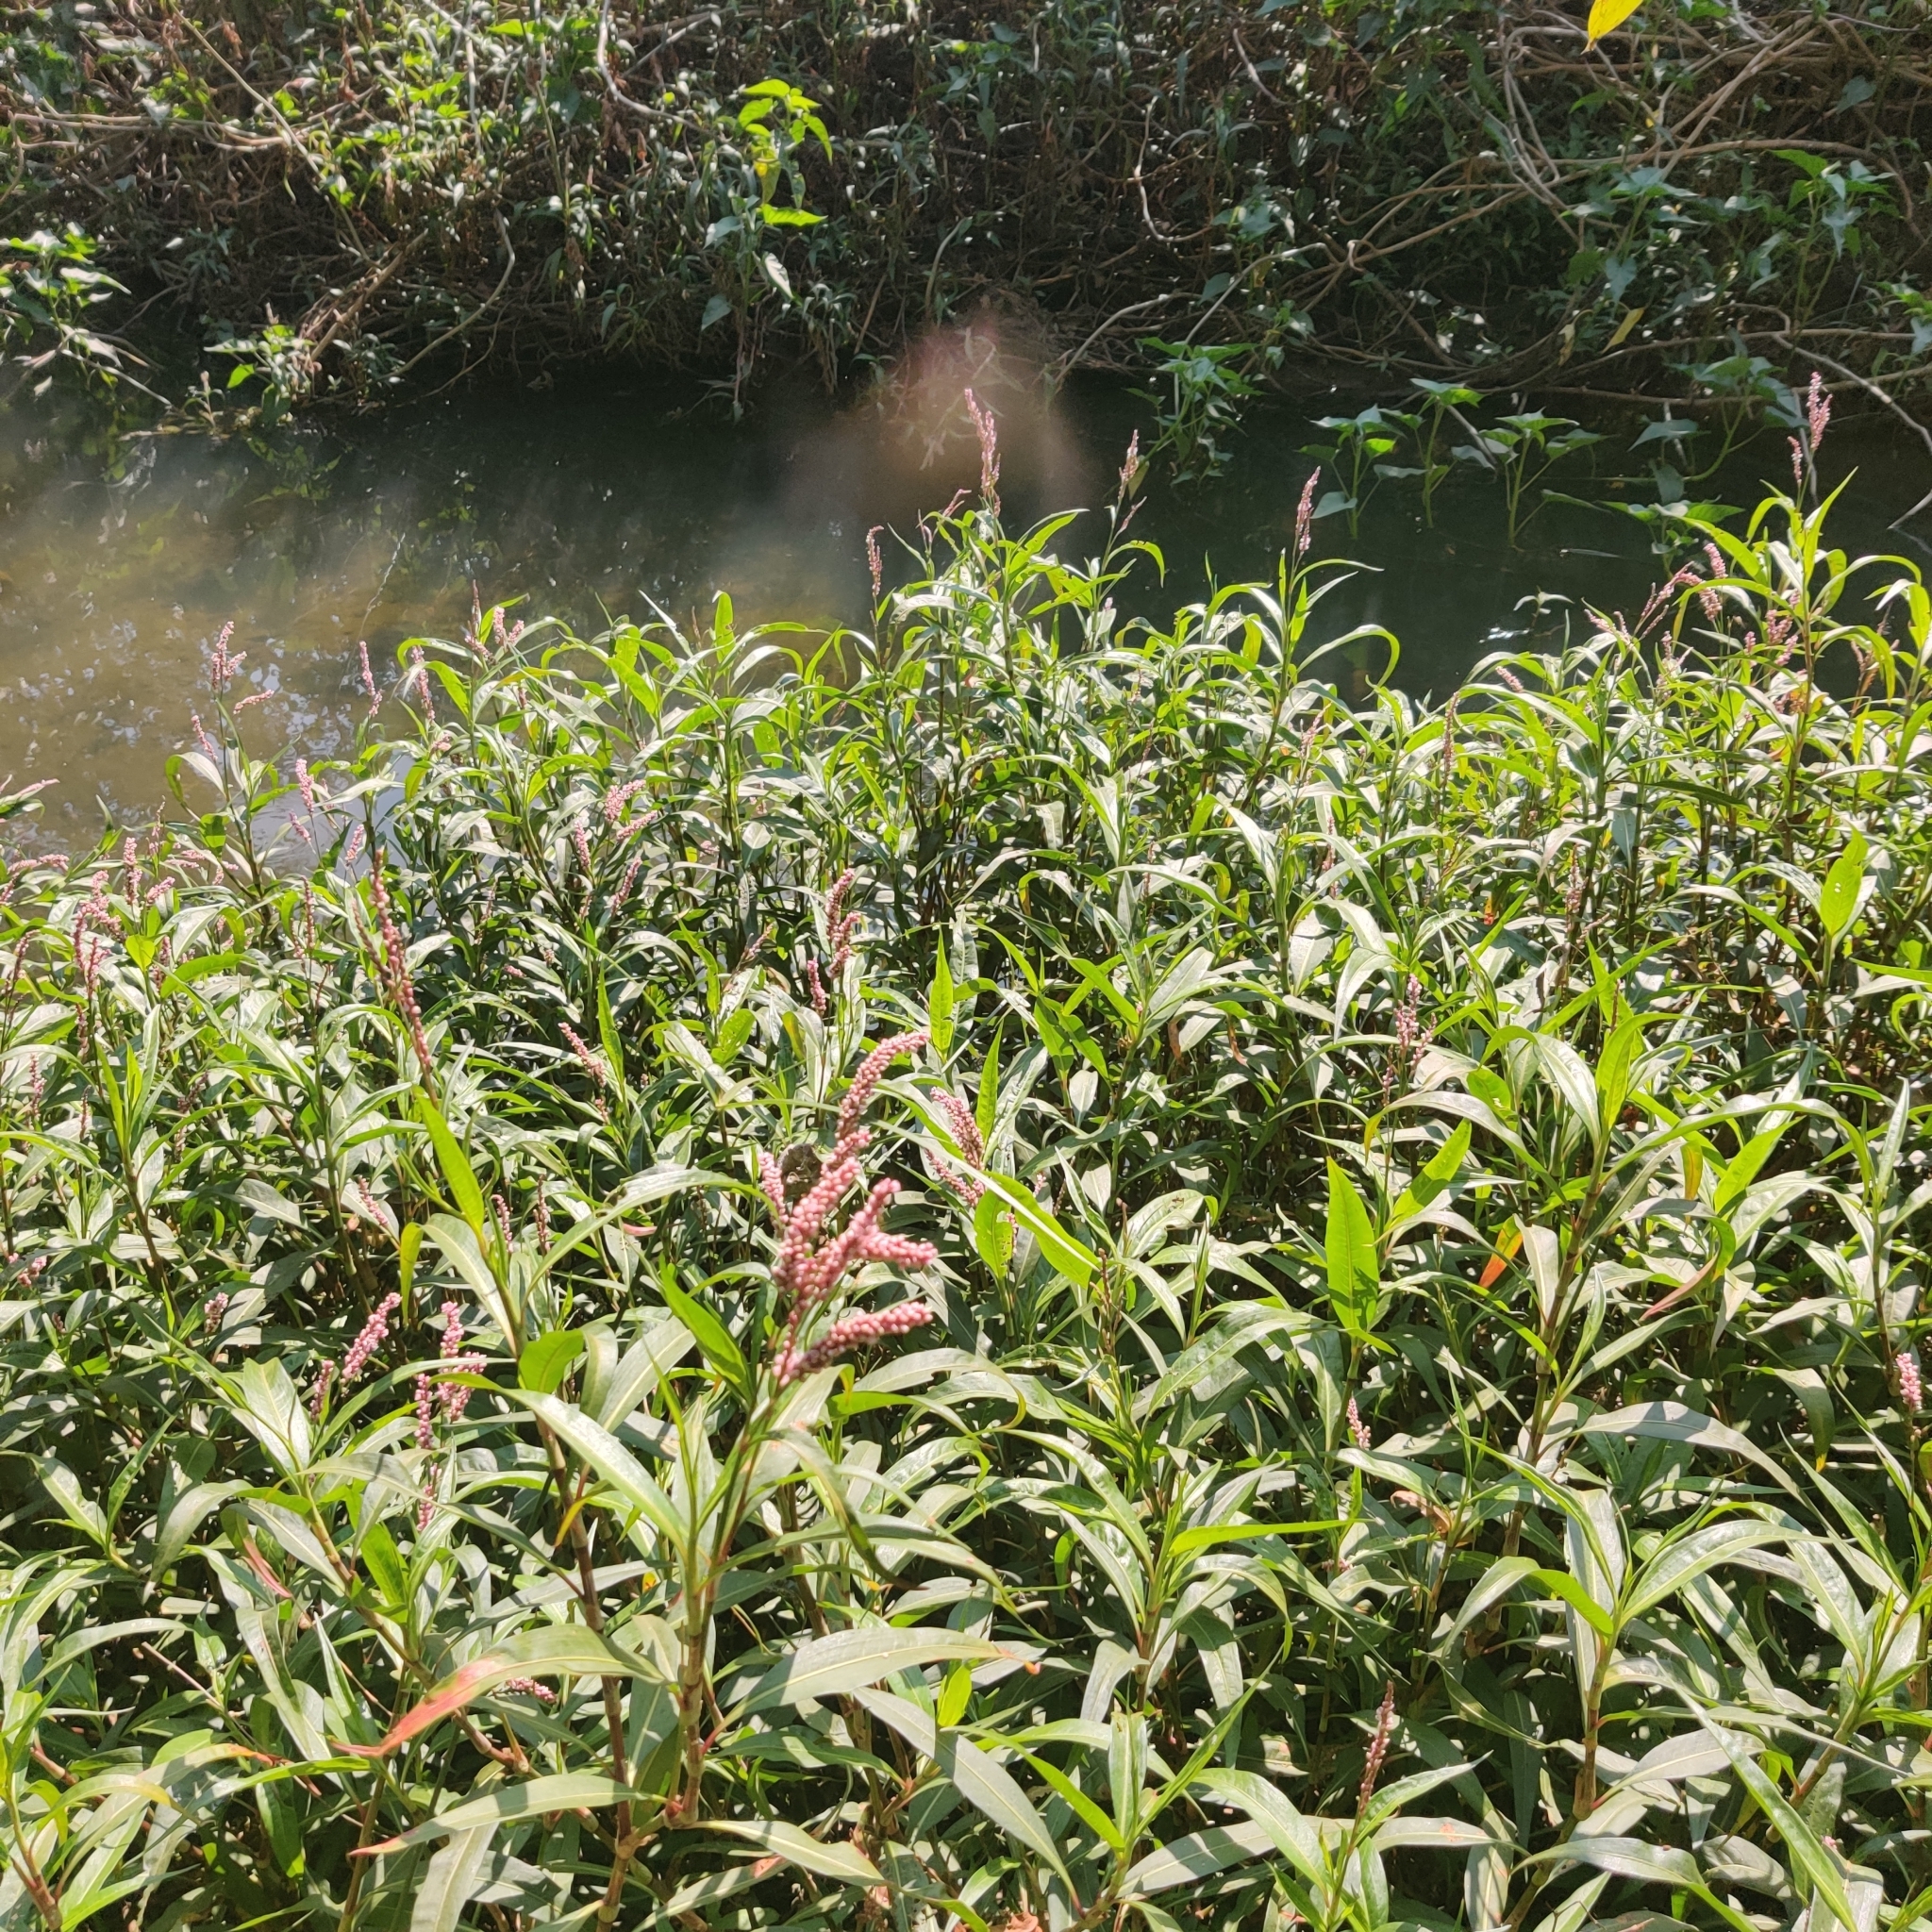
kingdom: Plantae
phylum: Tracheophyta
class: Magnoliopsida
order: Caryophyllales
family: Polygonaceae
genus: Persicaria
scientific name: Persicaria decipiens
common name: Willow-weed
